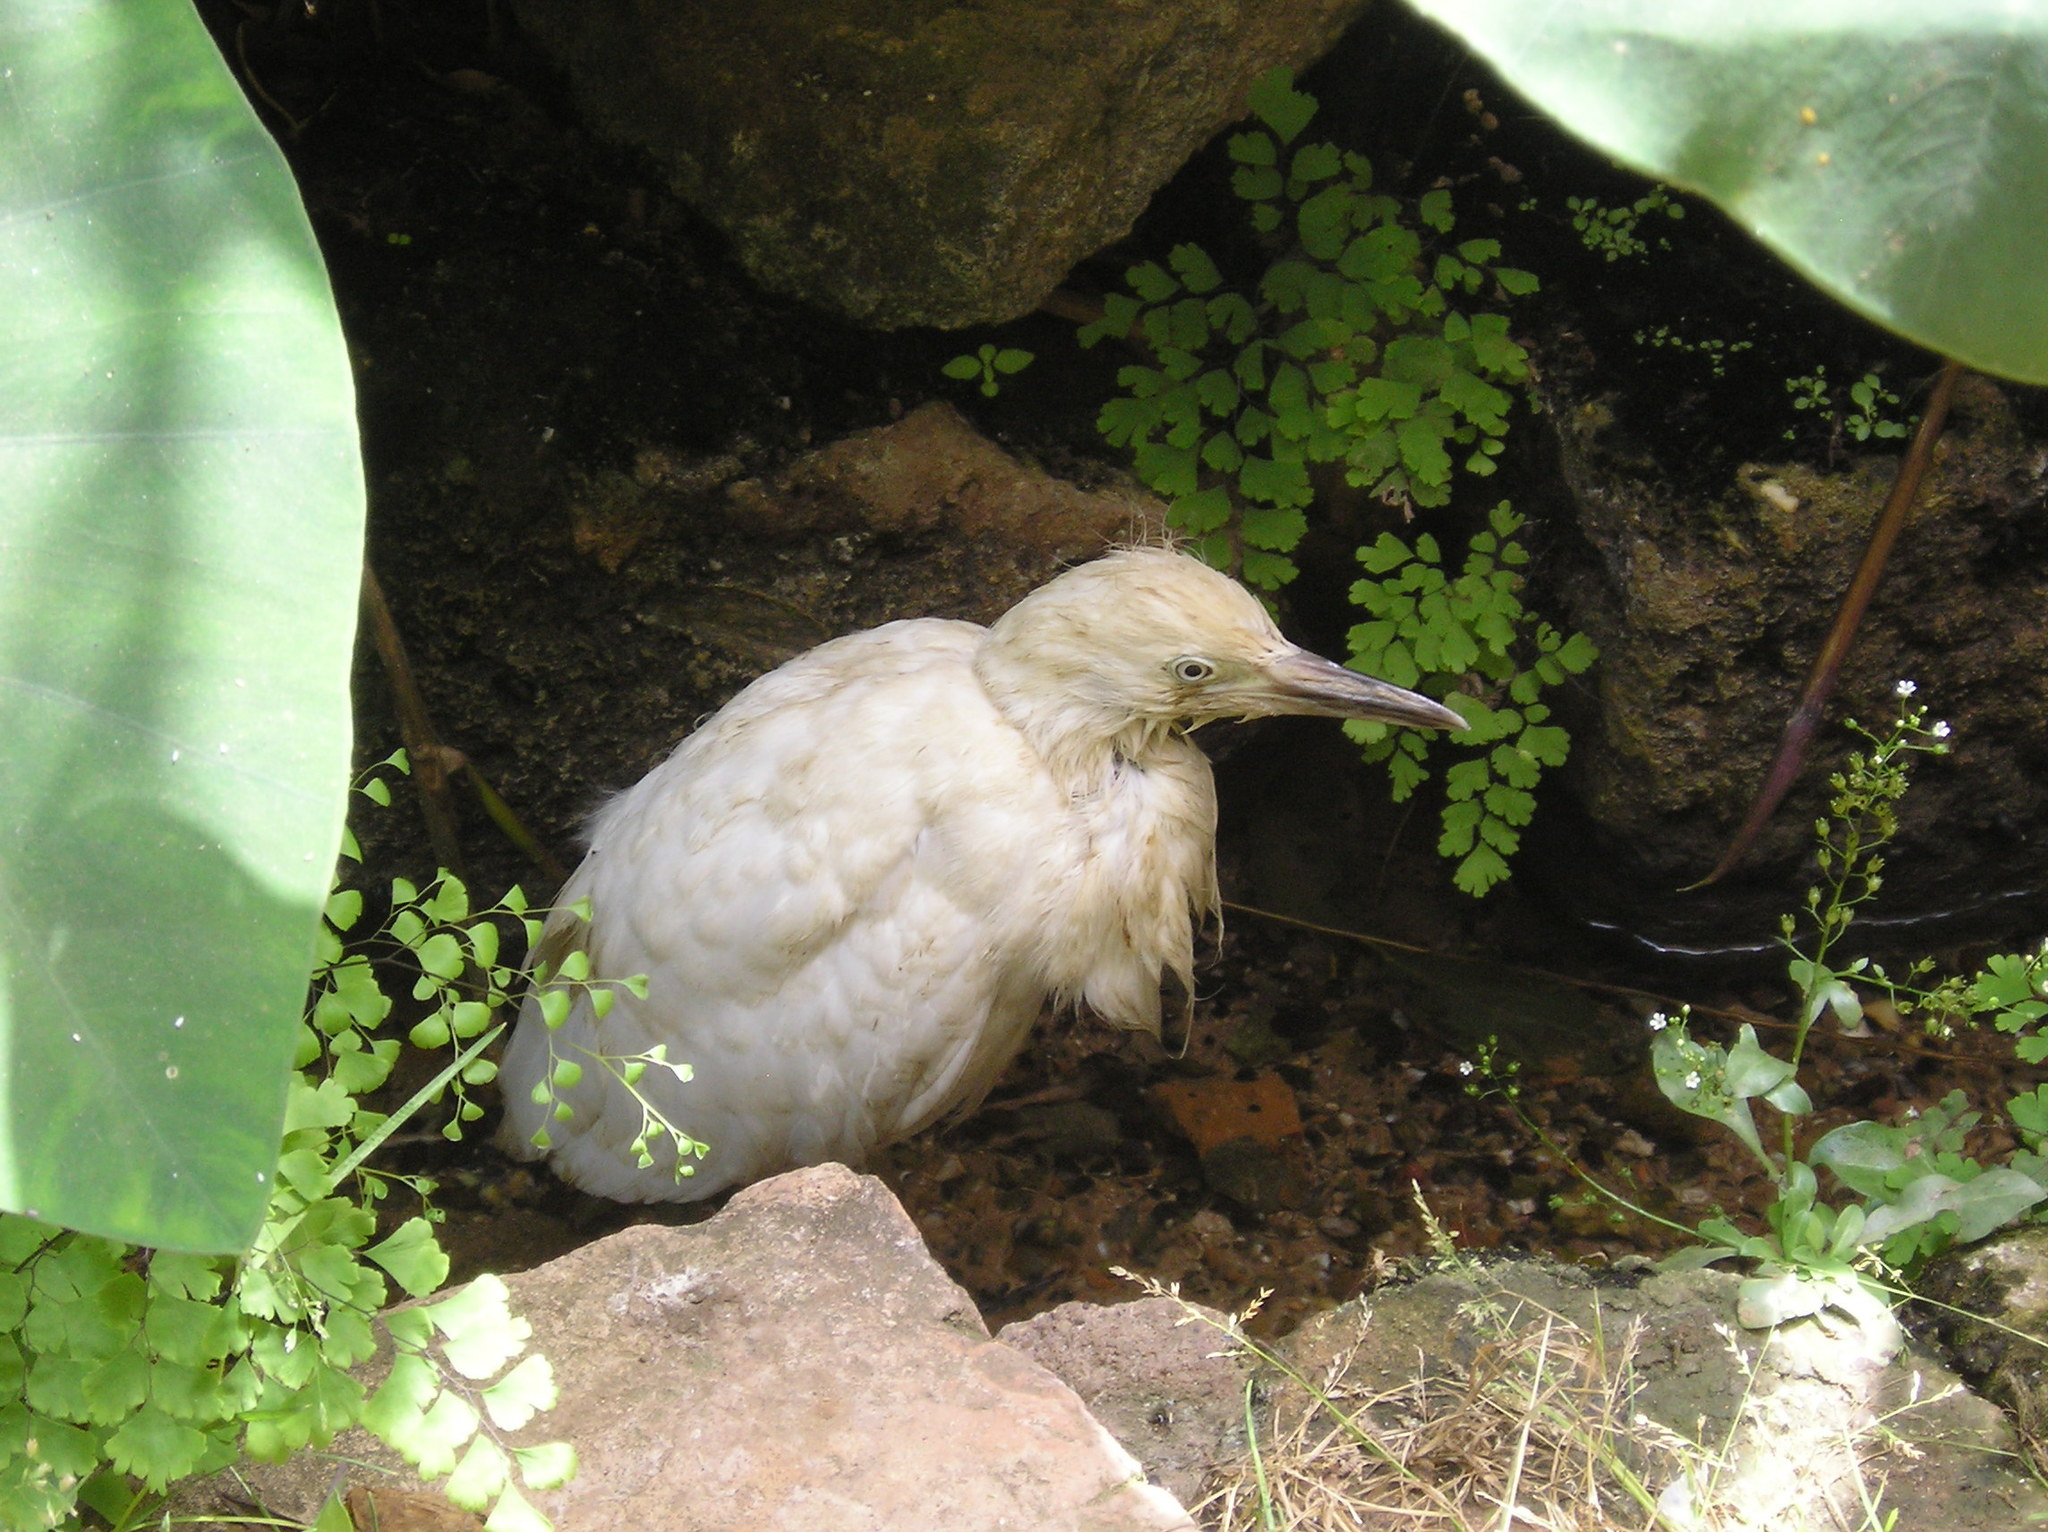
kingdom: Animalia
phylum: Chordata
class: Aves
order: Pelecaniformes
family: Ardeidae
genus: Bubulcus
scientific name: Bubulcus ibis
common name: Cattle egret
